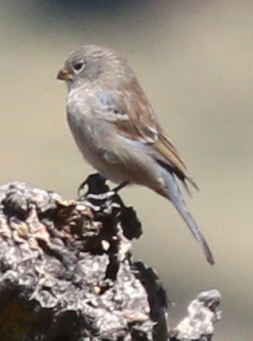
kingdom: Animalia
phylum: Chordata
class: Aves
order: Passeriformes
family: Thraupidae
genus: Catamenia
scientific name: Catamenia analis
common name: Band-tailed seedeater
